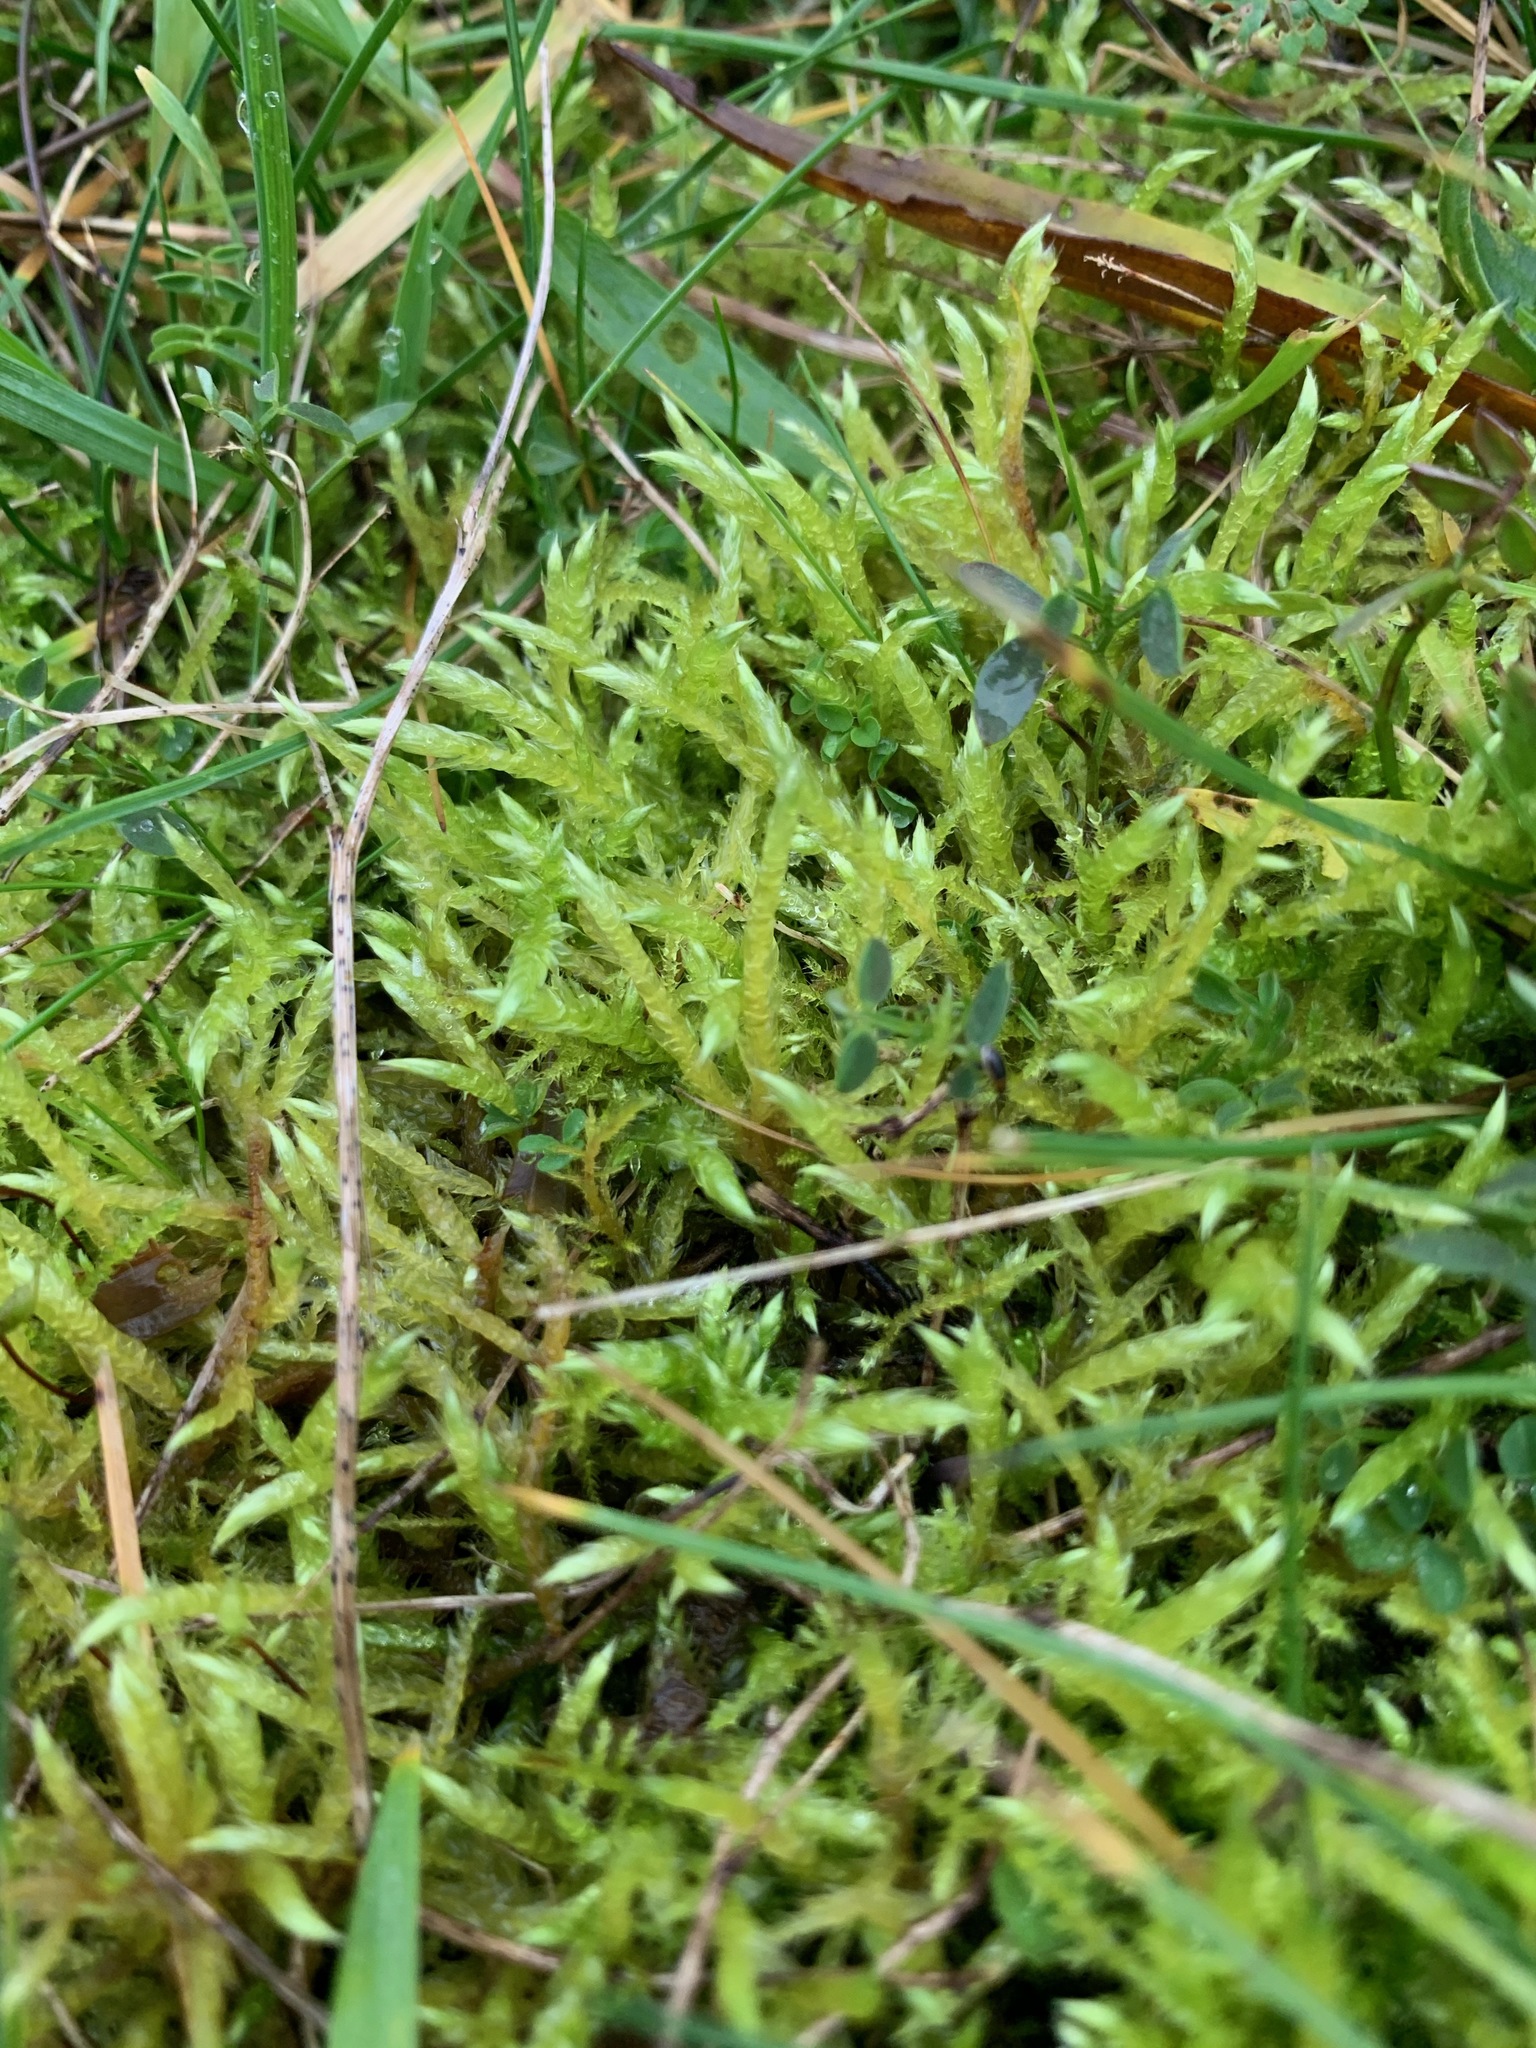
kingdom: Plantae
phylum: Bryophyta
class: Bryopsida
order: Hypnales
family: Brachytheciaceae
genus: Brachythecium
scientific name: Brachythecium albicans
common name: Whitish ragged moss
